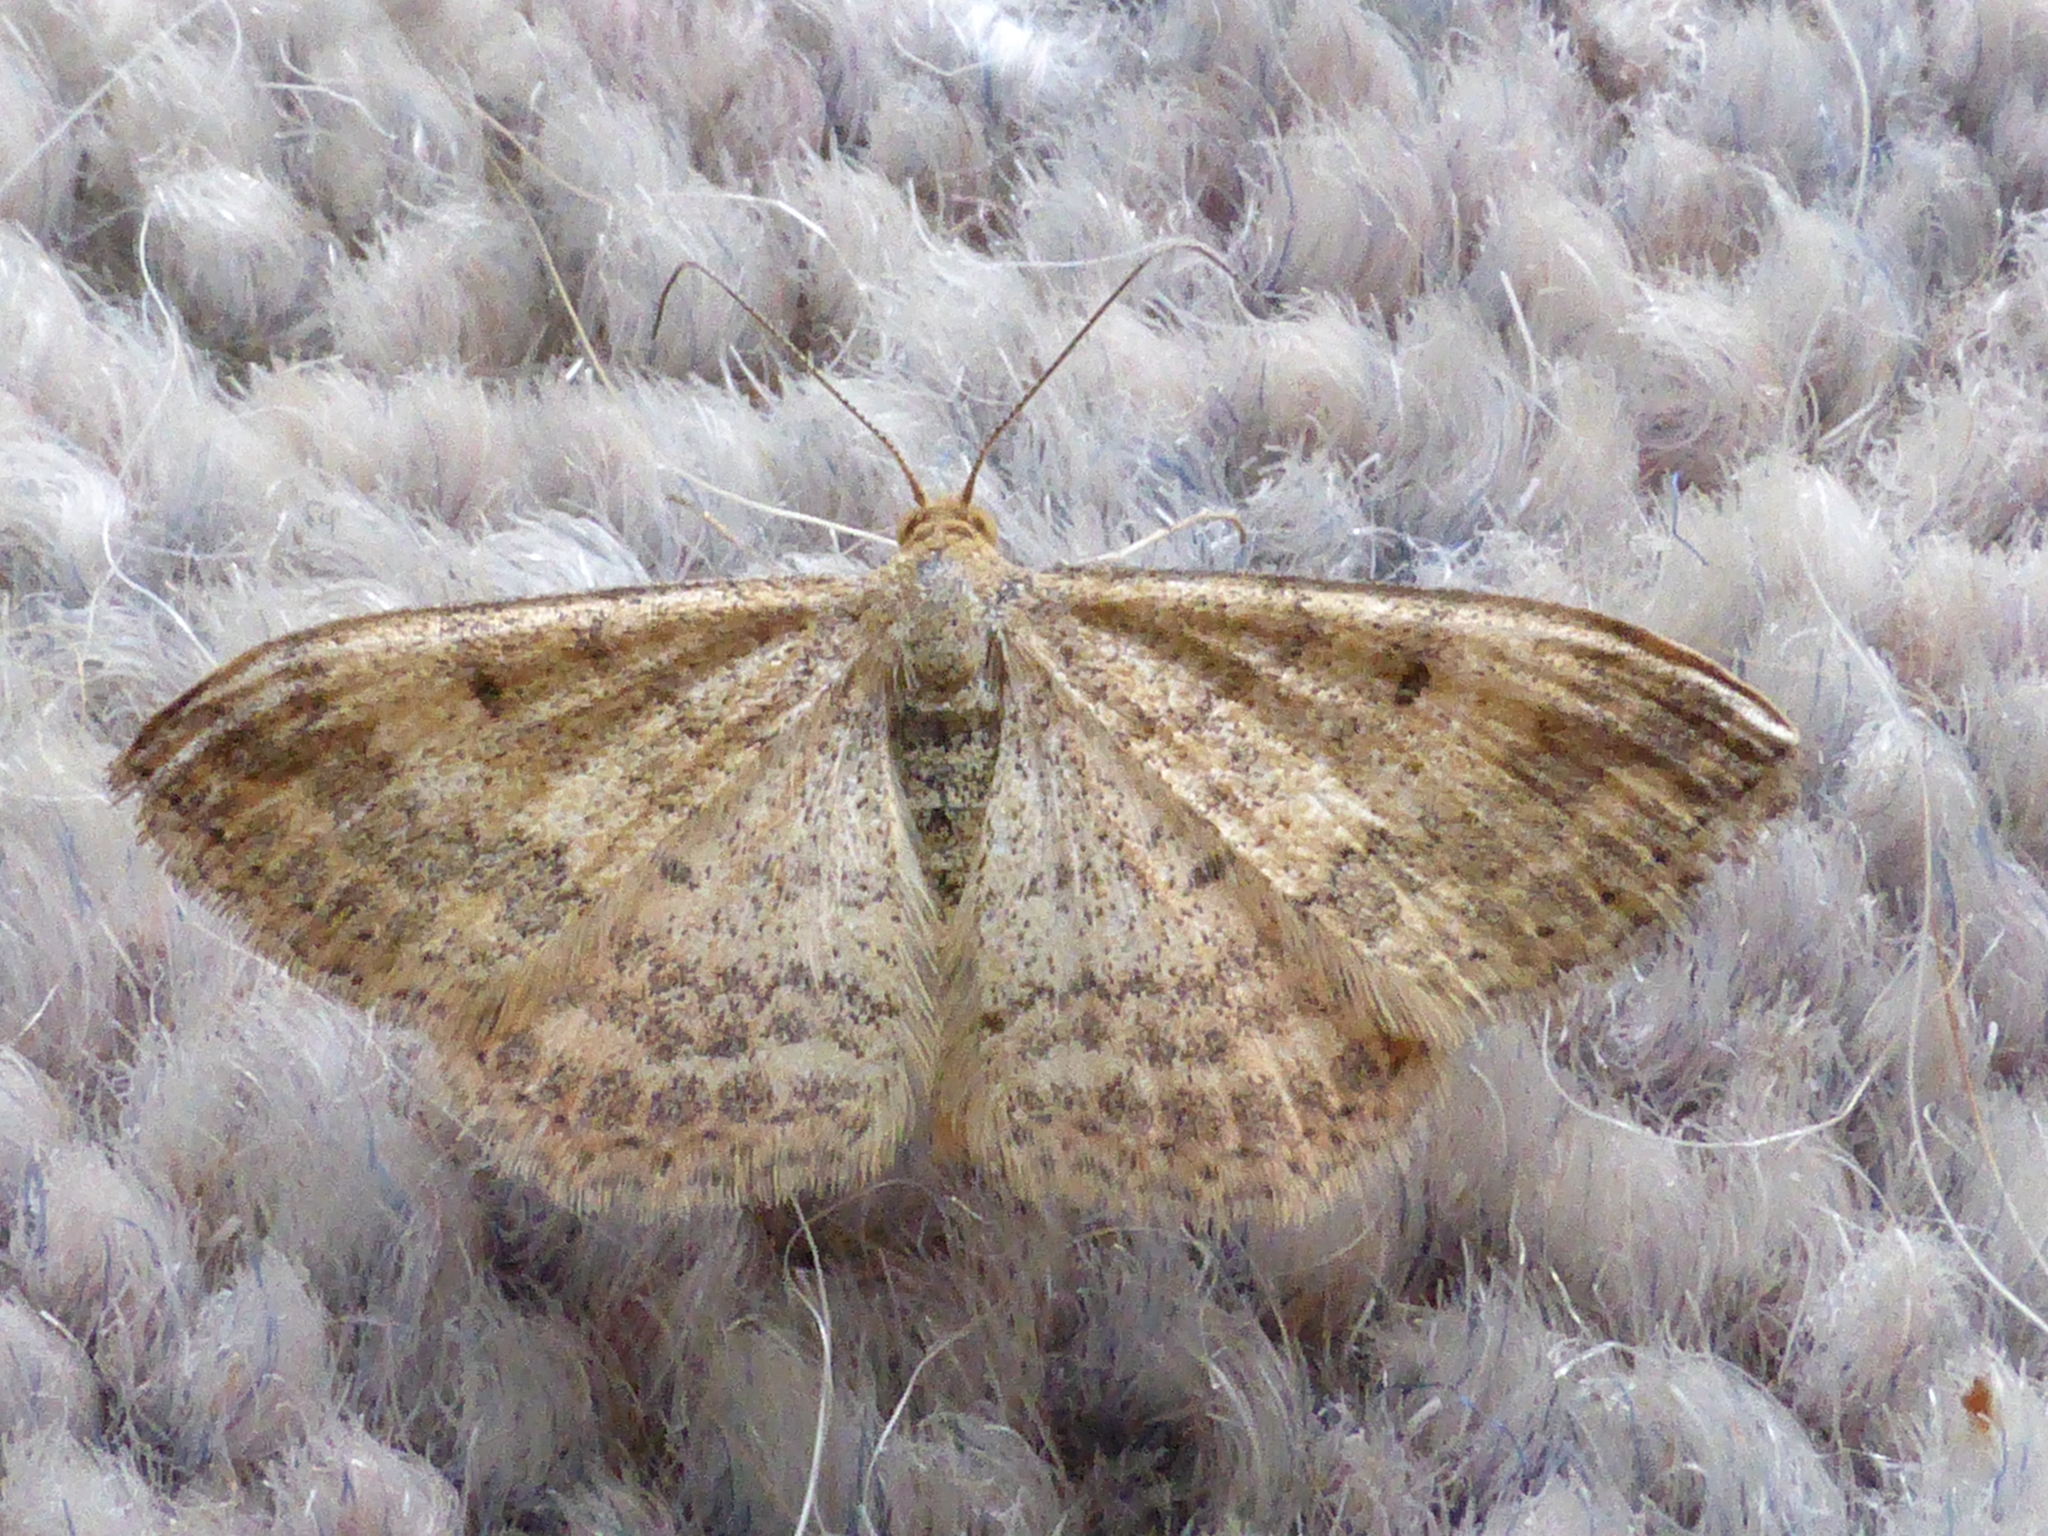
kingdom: Animalia
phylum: Arthropoda
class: Insecta
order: Lepidoptera
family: Geometridae
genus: Scopula
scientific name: Scopula rubraria
